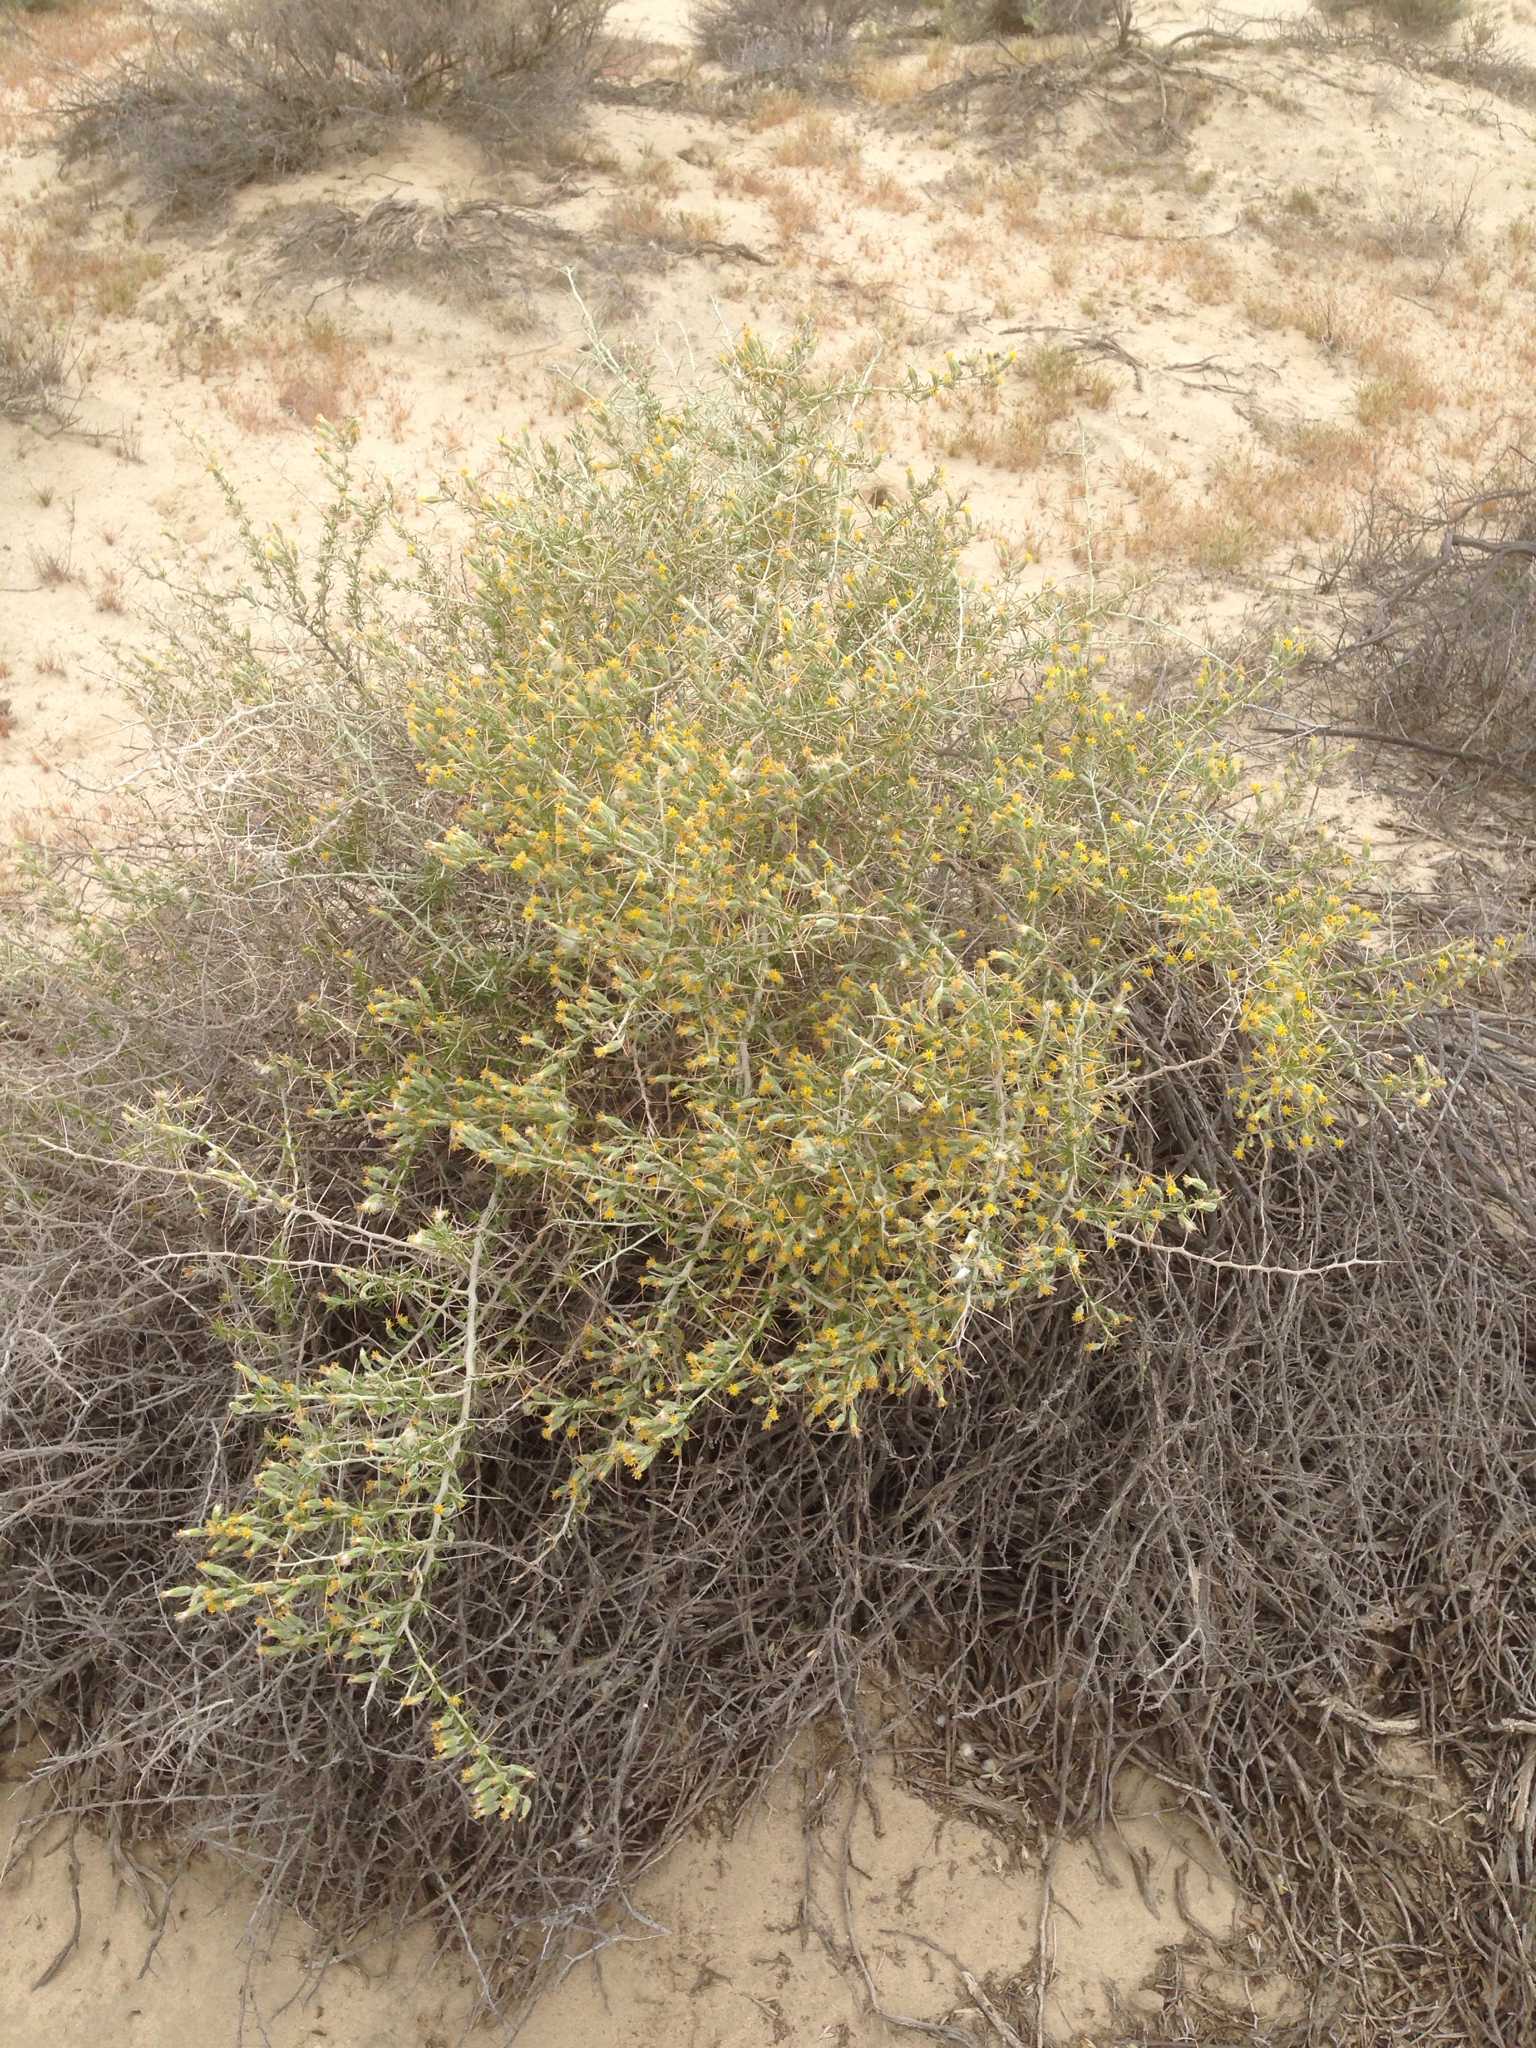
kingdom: Plantae
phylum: Tracheophyta
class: Magnoliopsida
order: Asterales
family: Asteraceae
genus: Tetradymia
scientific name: Tetradymia axillaris
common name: Long-spine horsebrush
